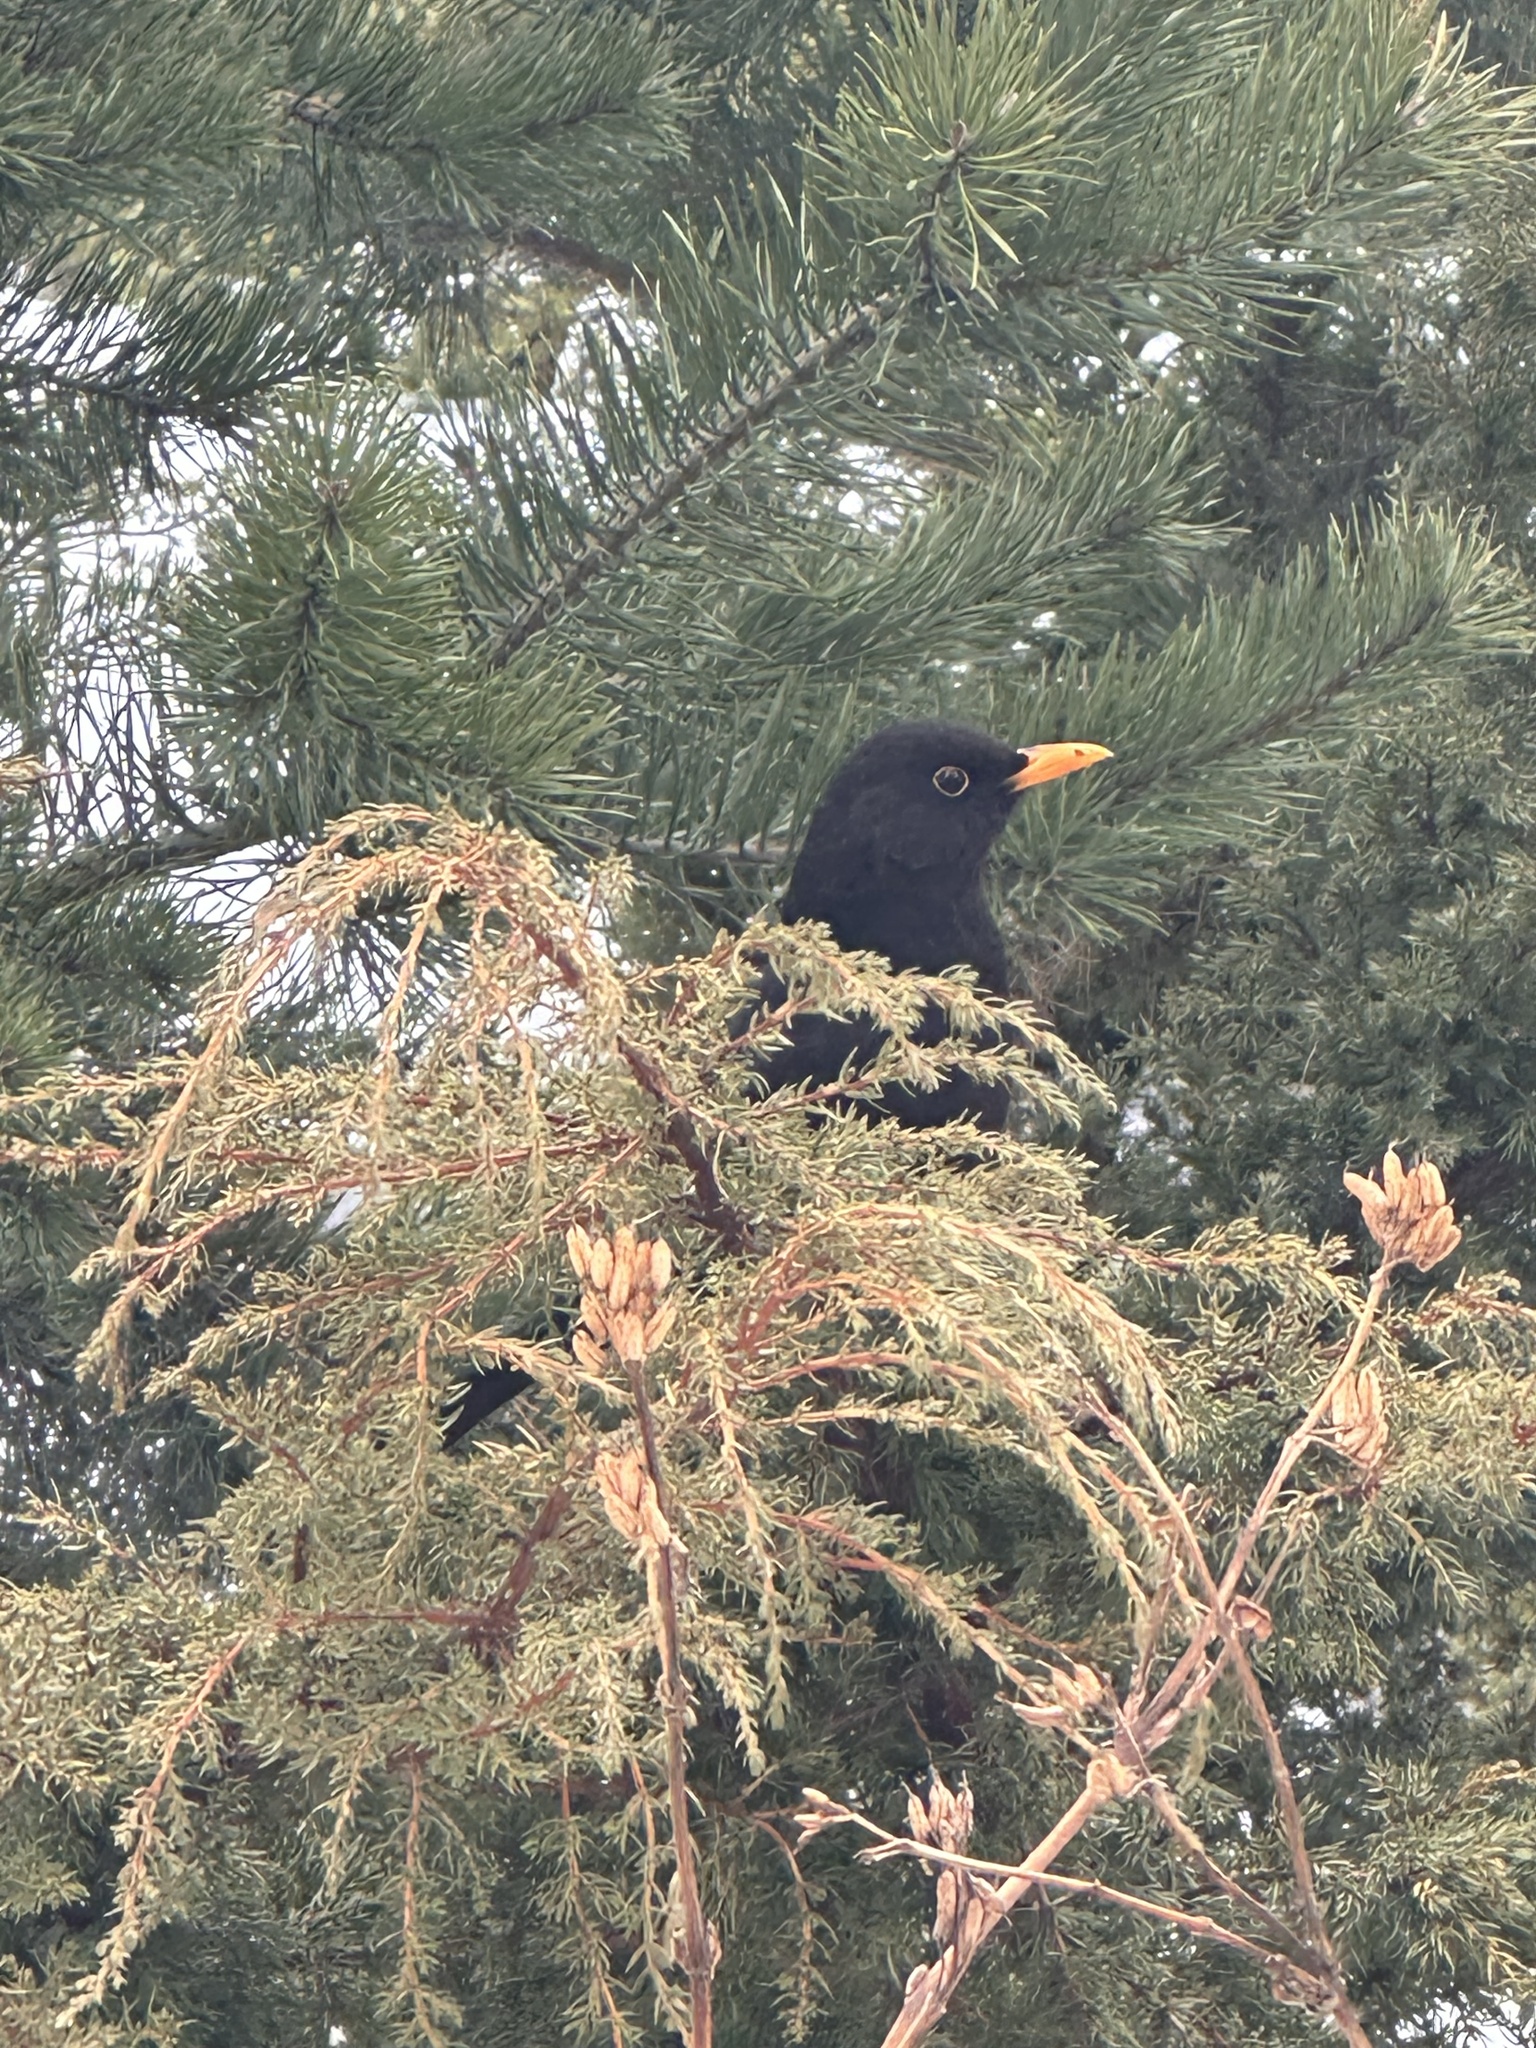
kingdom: Animalia
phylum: Chordata
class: Aves
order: Passeriformes
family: Turdidae
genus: Turdus
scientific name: Turdus merula
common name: Common blackbird
